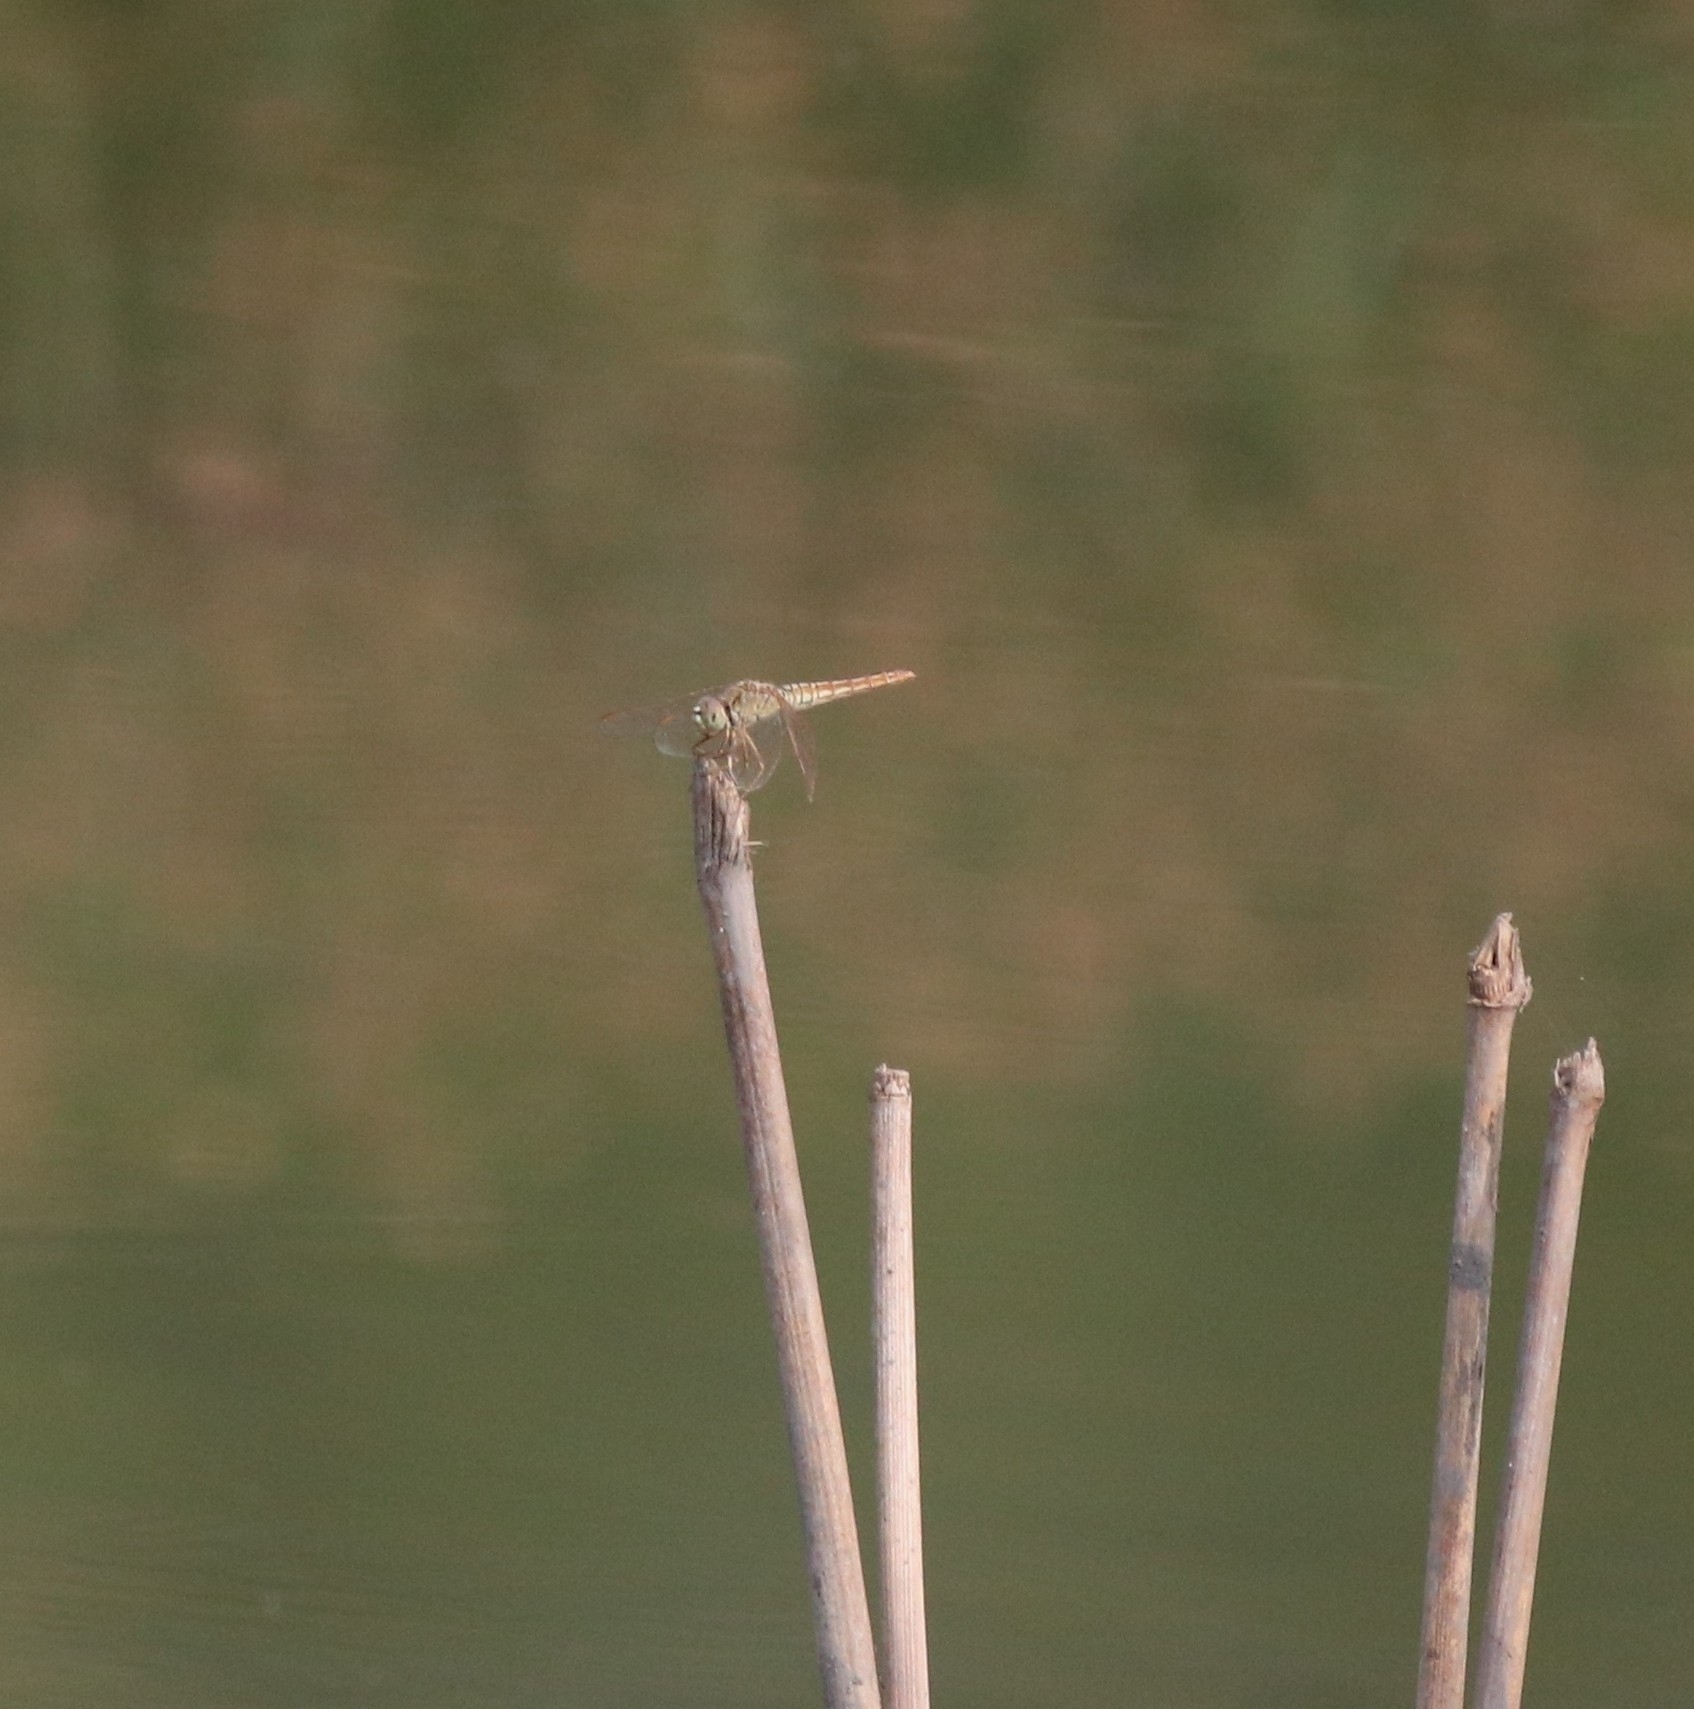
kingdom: Animalia
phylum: Arthropoda
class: Insecta
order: Odonata
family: Libellulidae
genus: Brachythemis
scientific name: Brachythemis contaminata
